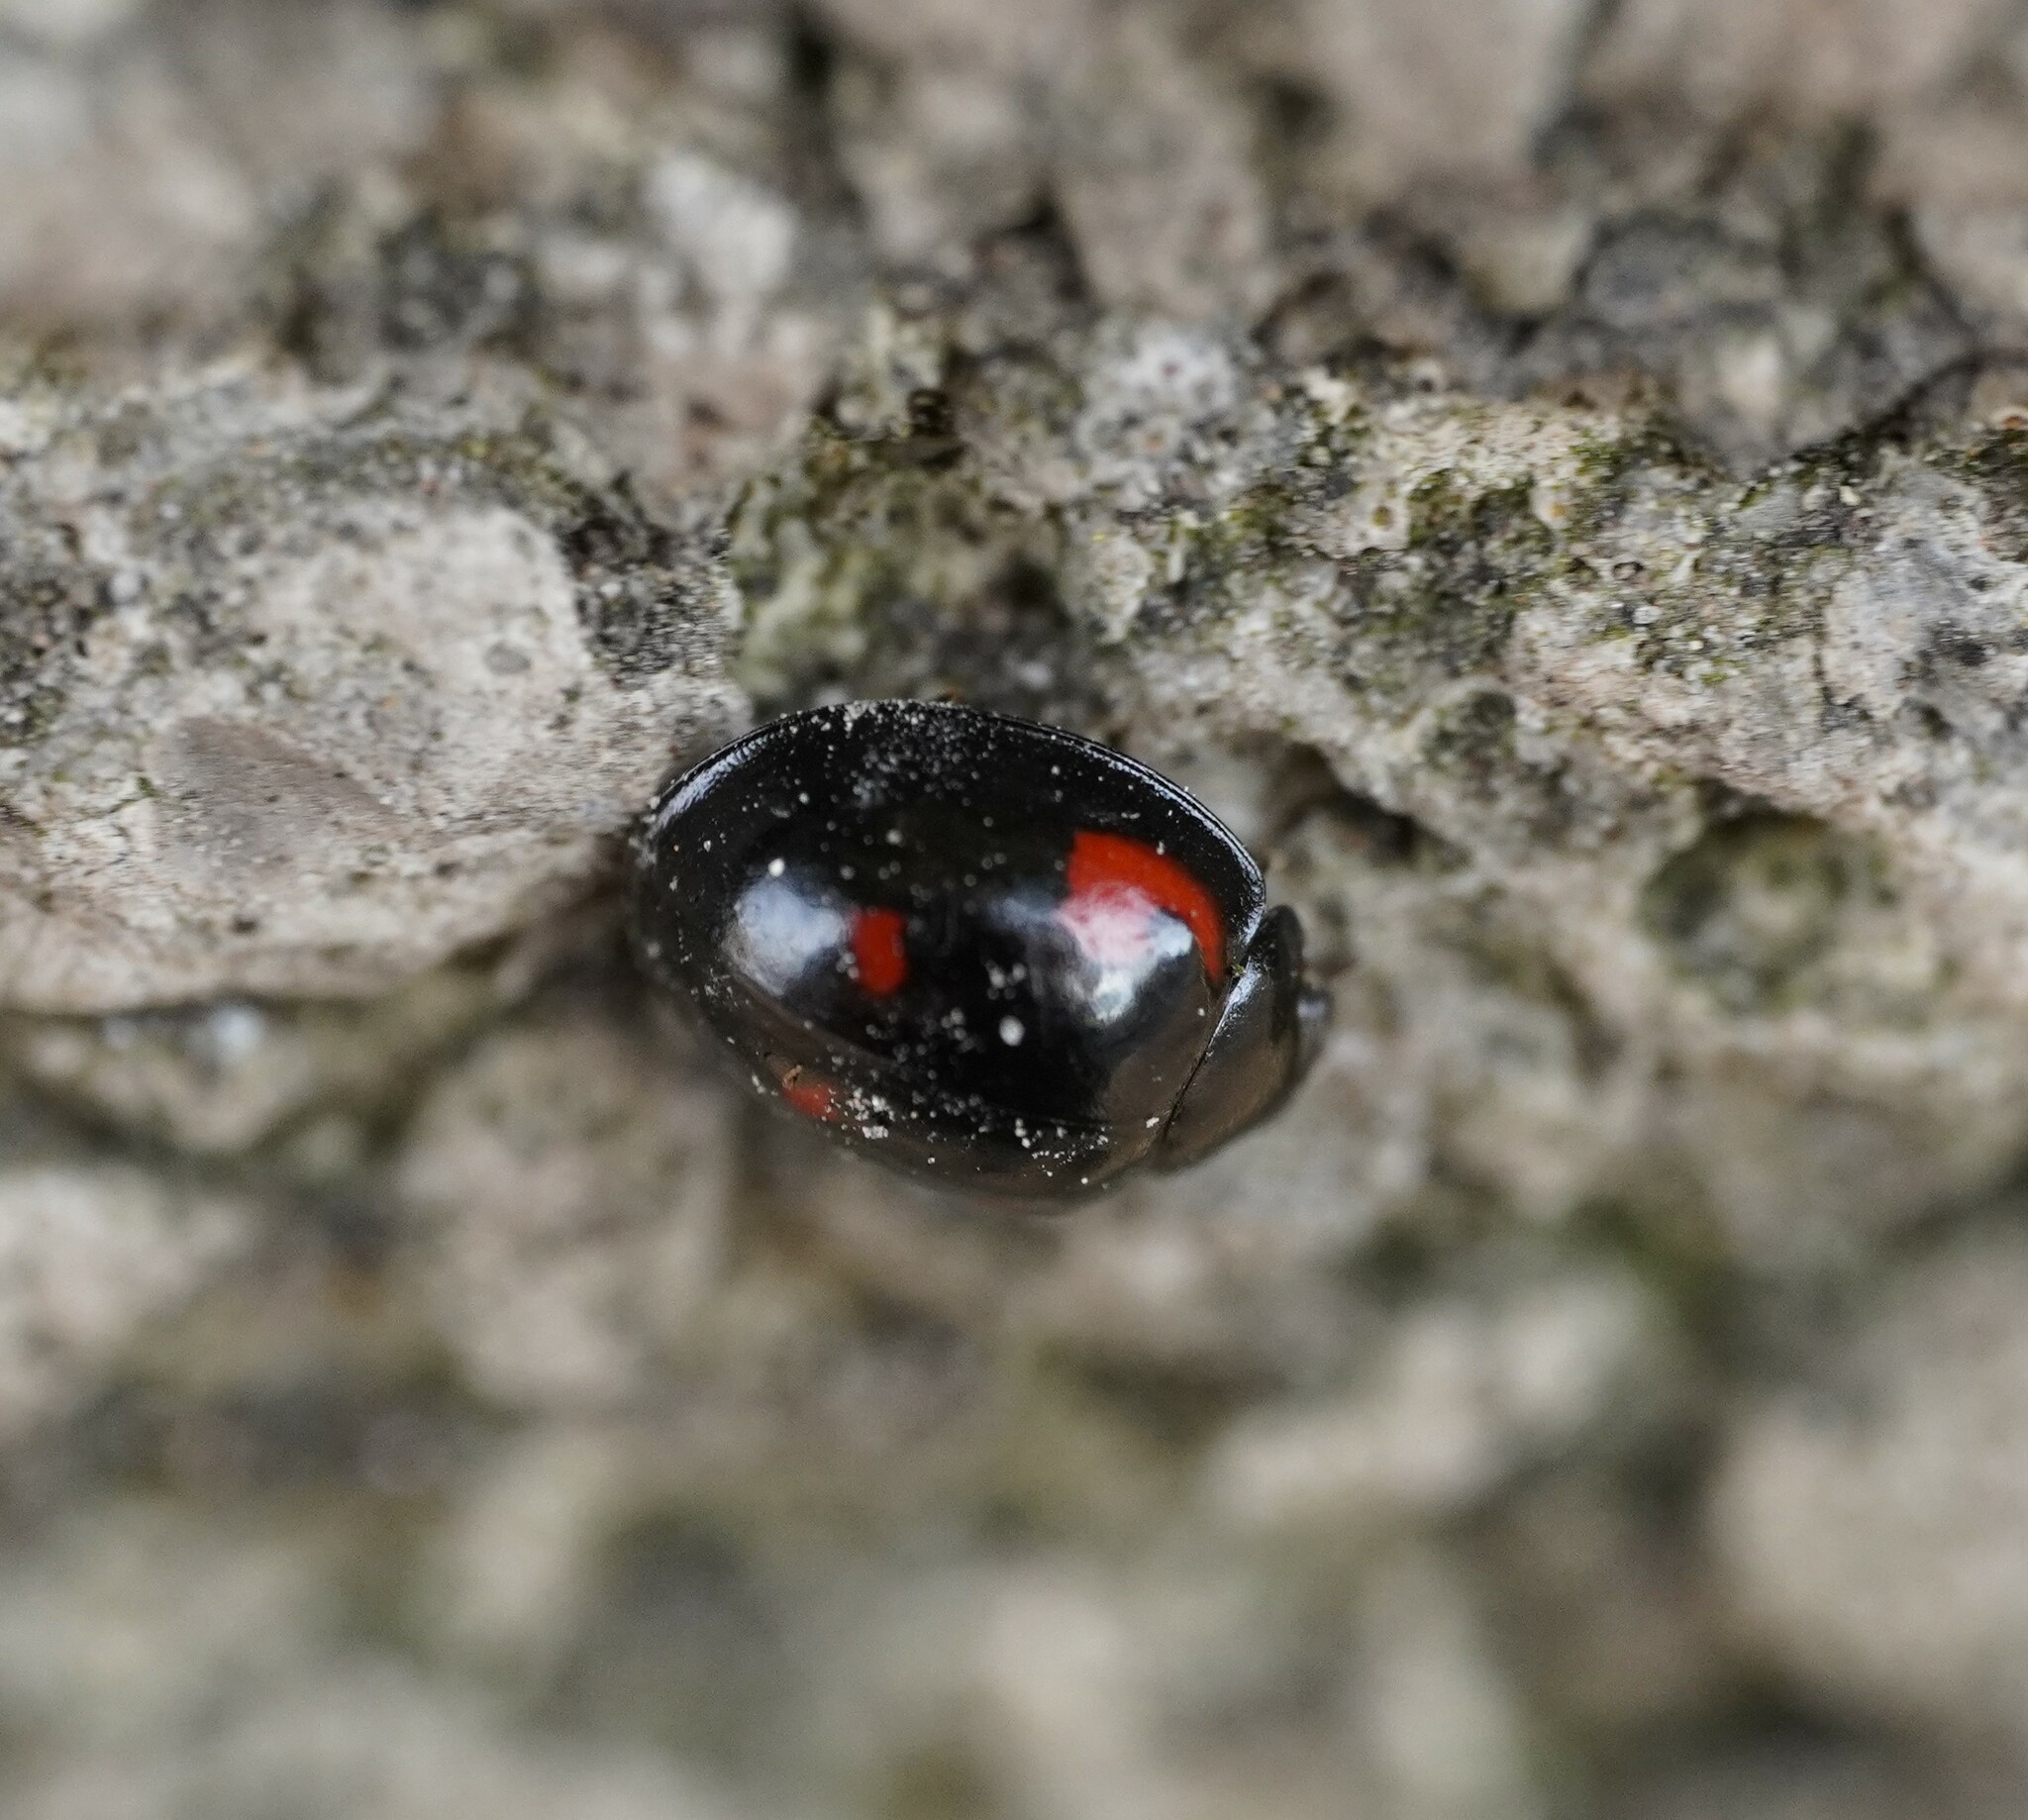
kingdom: Animalia
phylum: Arthropoda
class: Insecta
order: Coleoptera
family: Coccinellidae
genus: Brumus
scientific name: Brumus quadripustulatus
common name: Ladybird beetle
